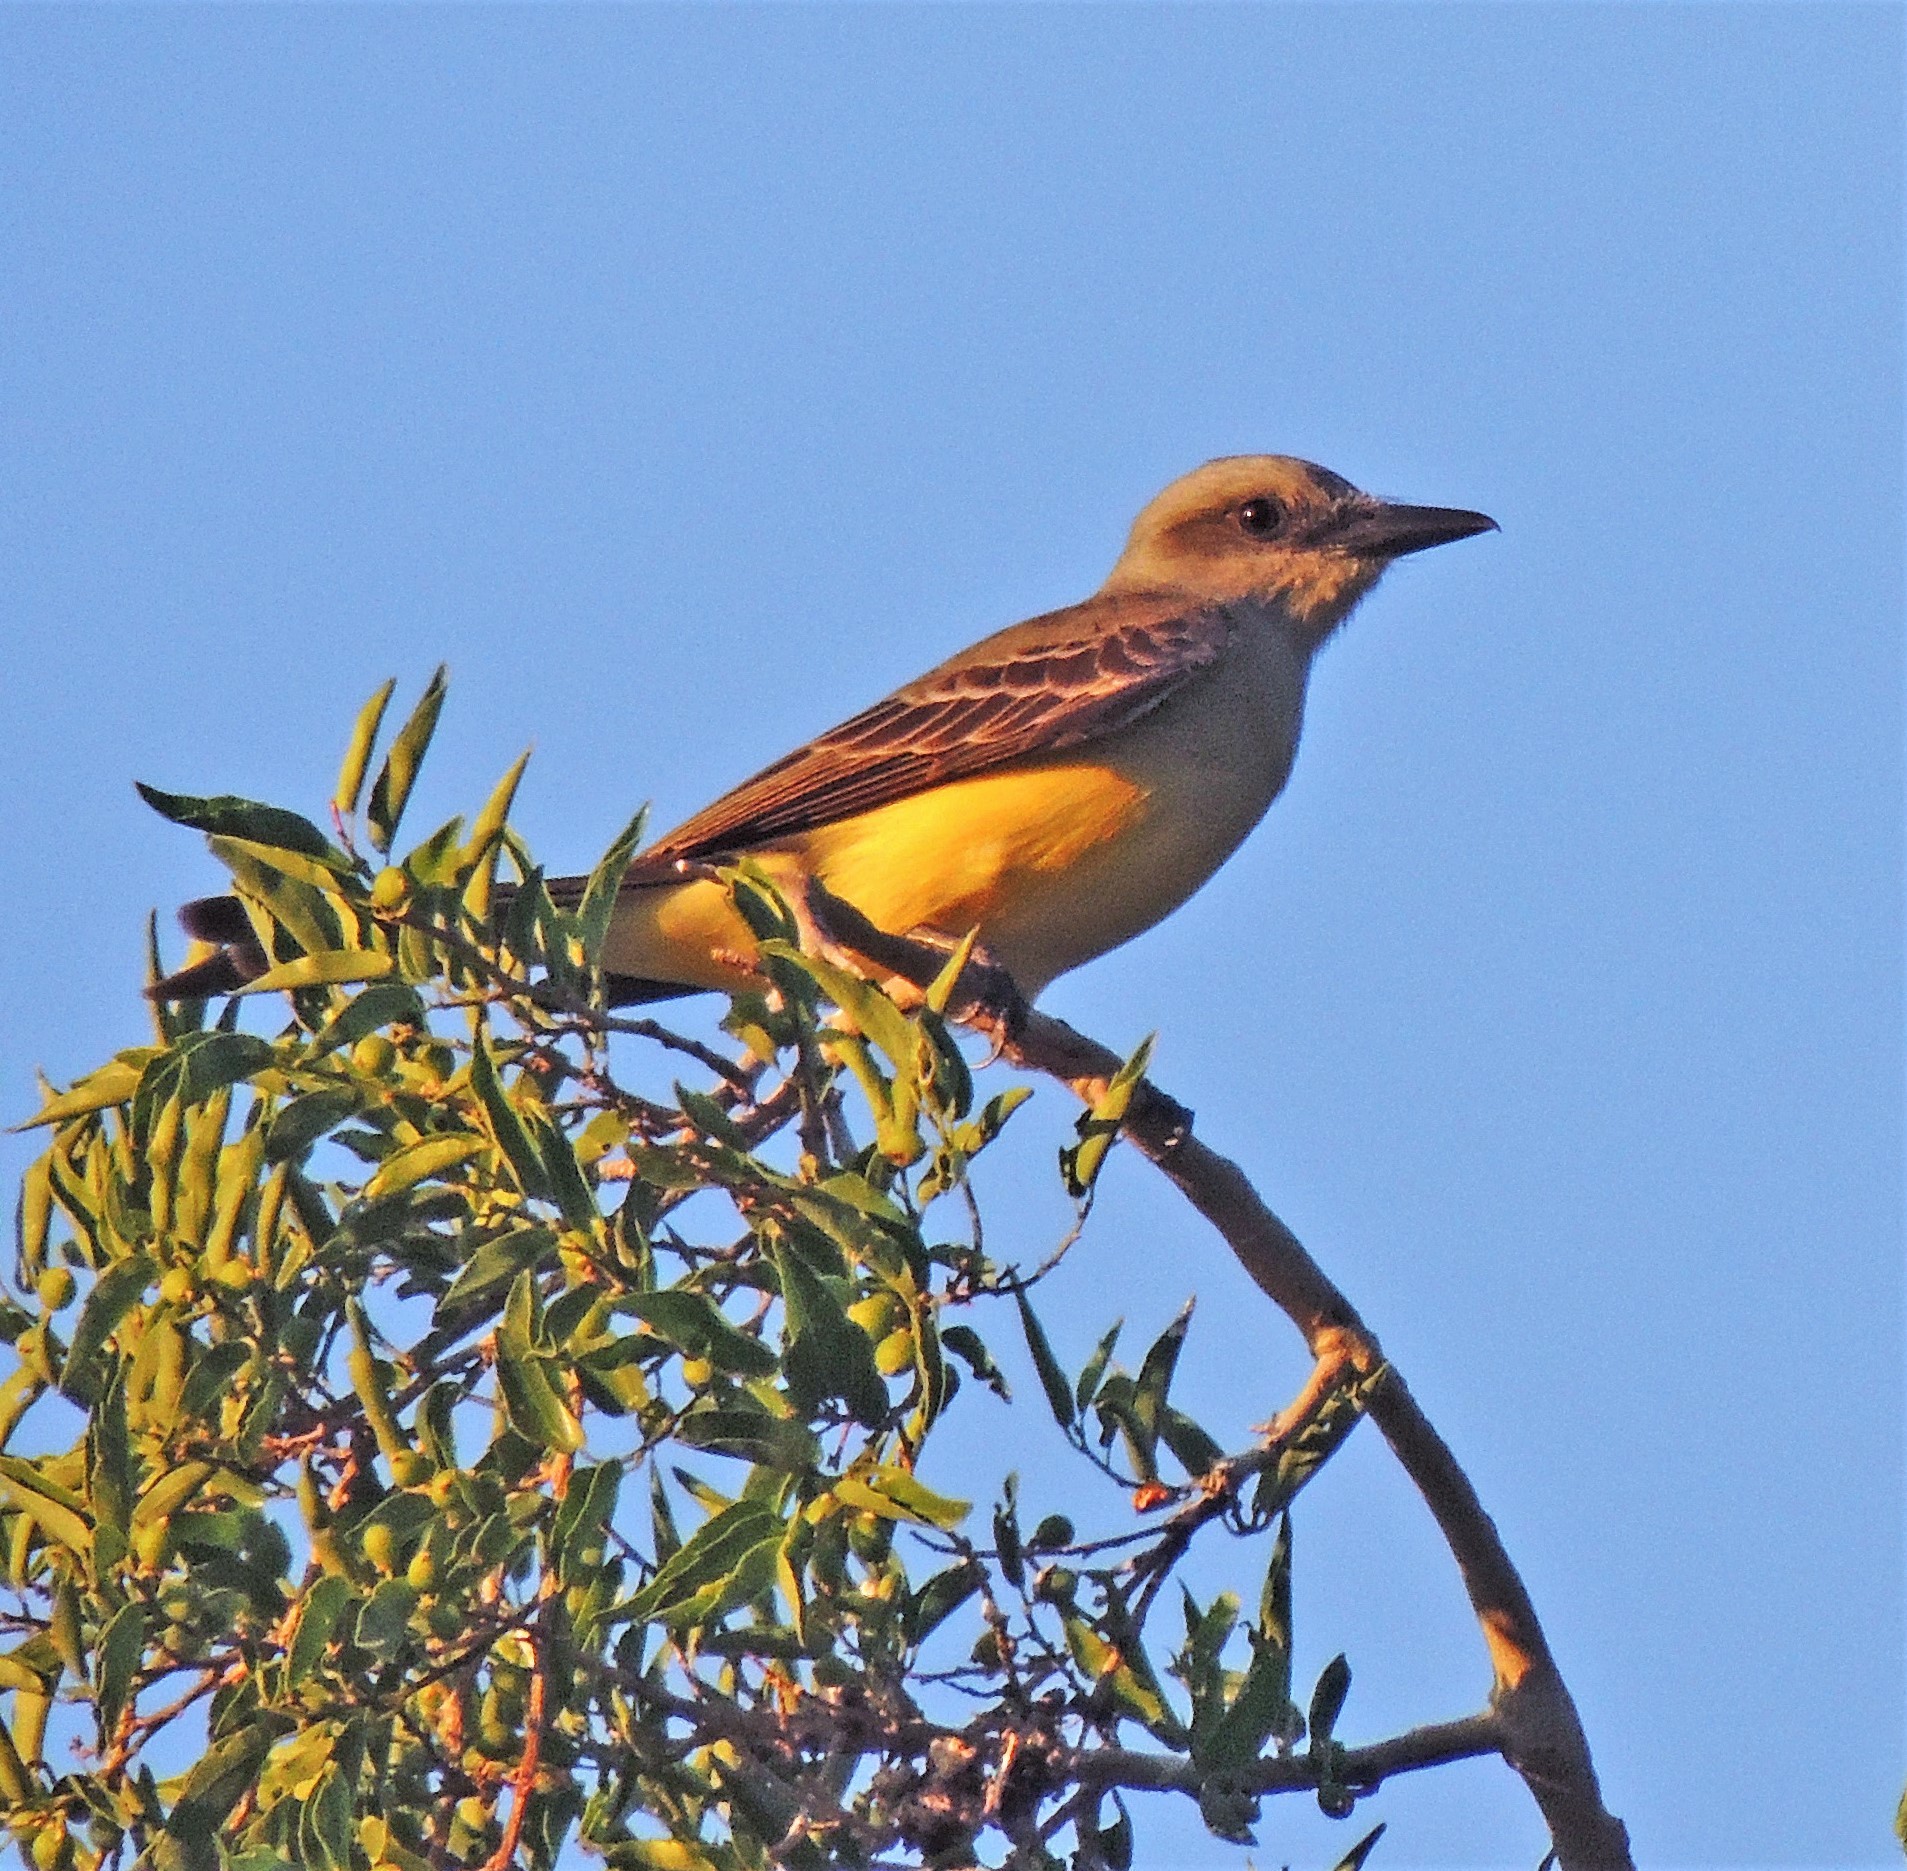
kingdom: Animalia
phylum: Chordata
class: Aves
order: Passeriformes
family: Tyrannidae
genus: Tyrannus
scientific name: Tyrannus melancholicus
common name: Tropical kingbird
